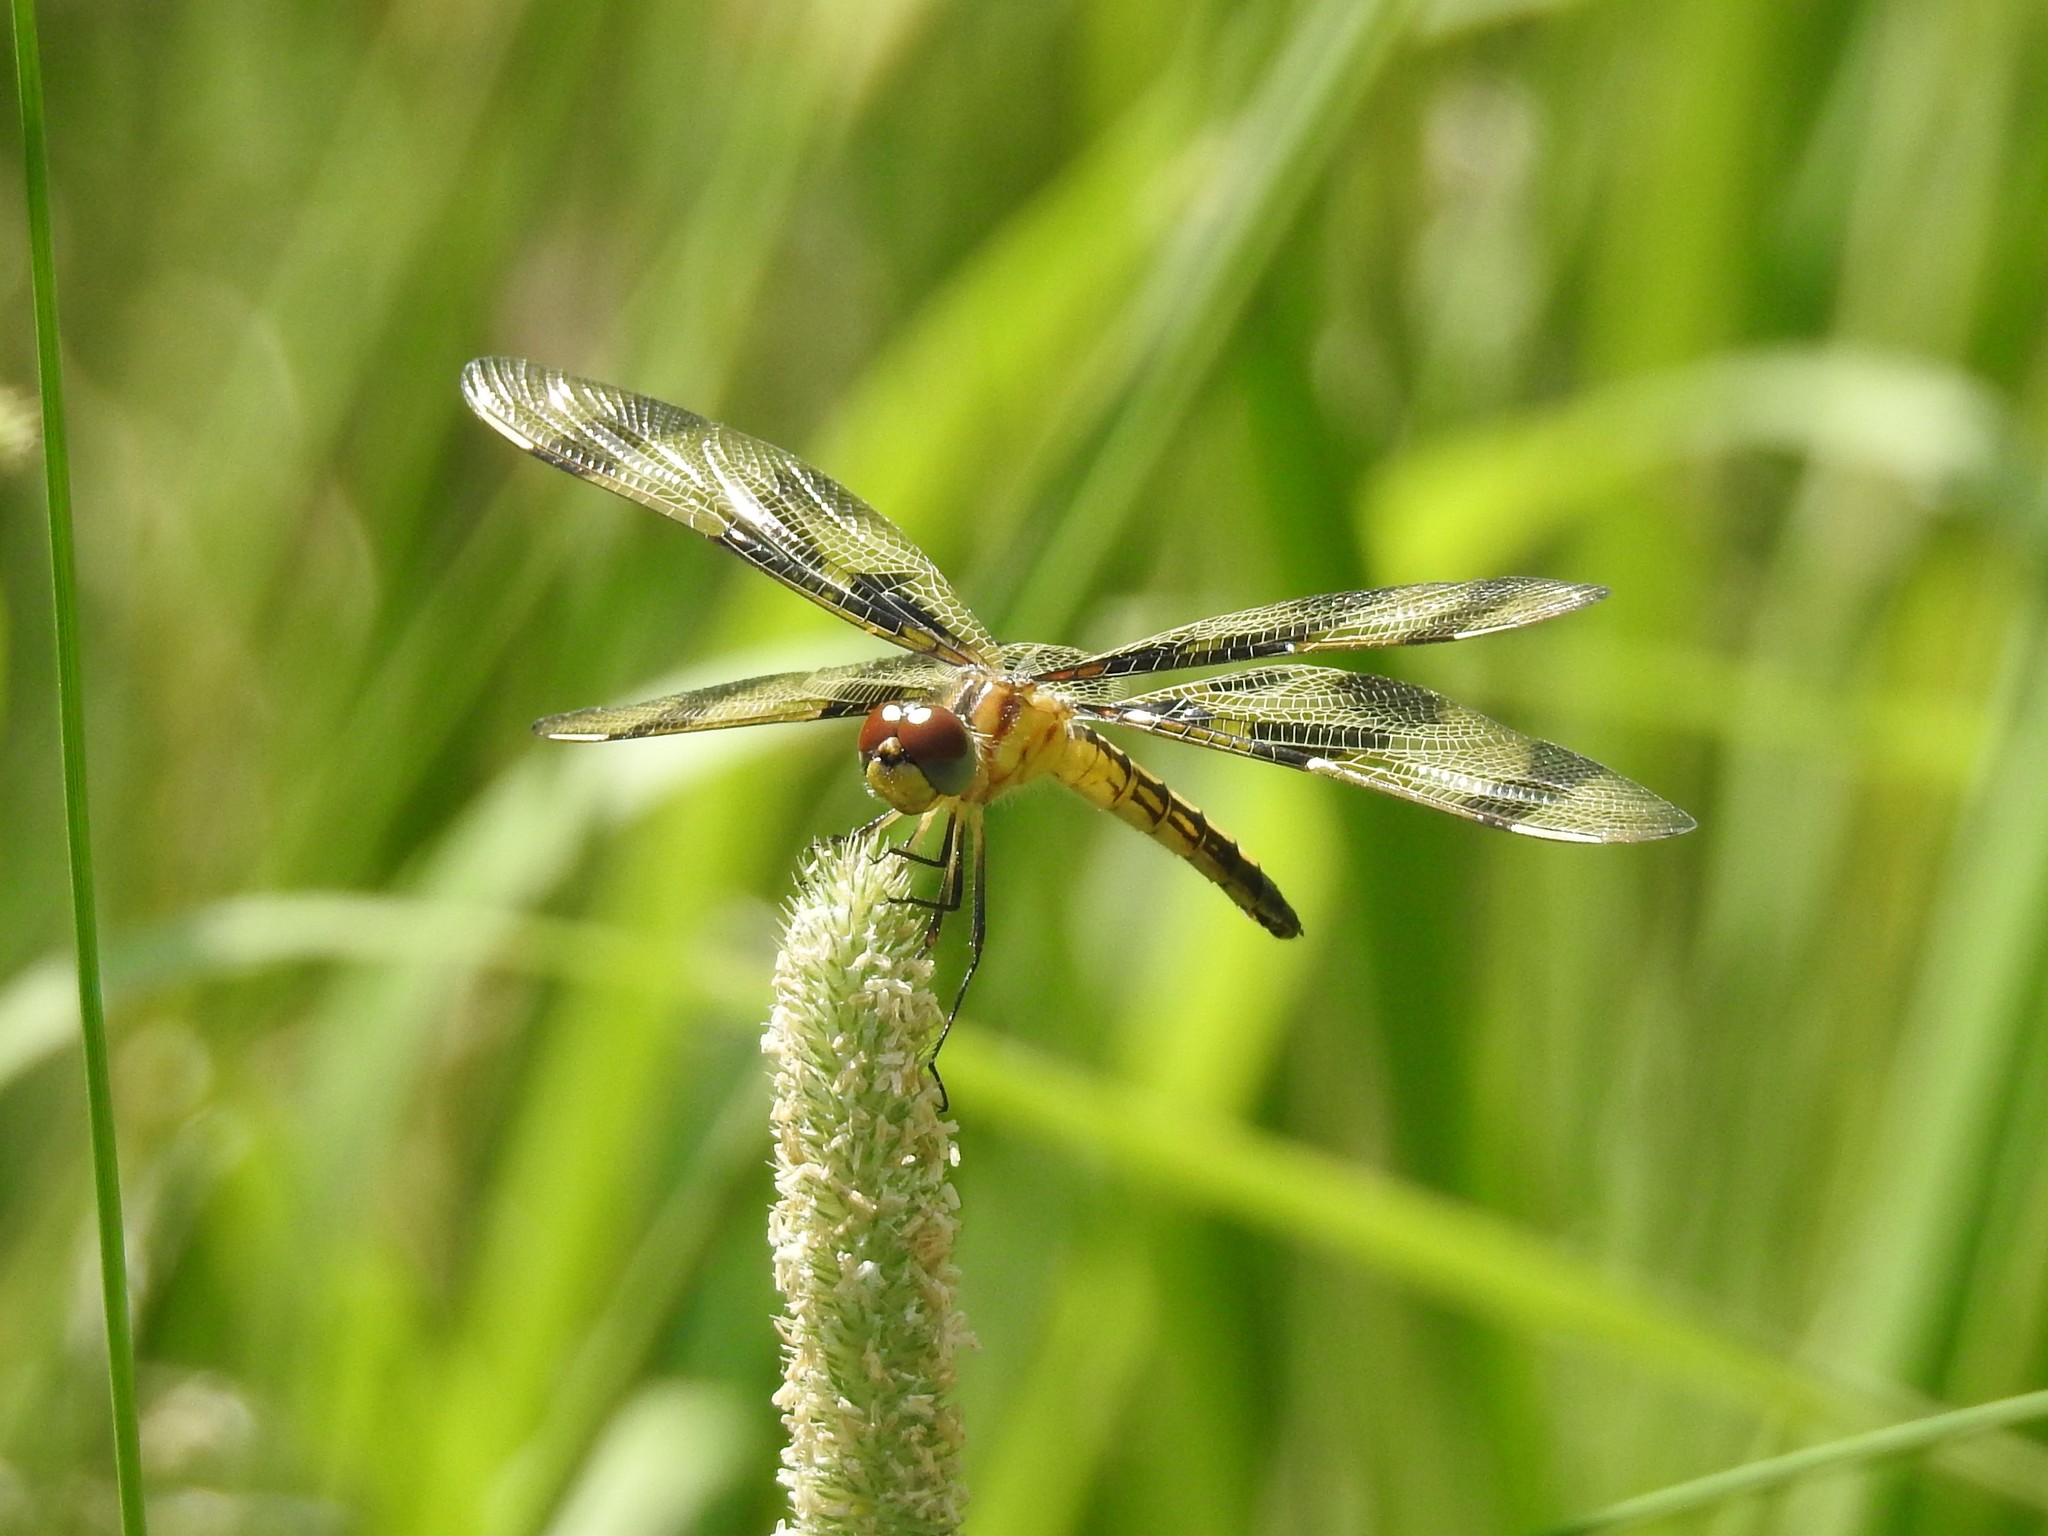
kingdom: Animalia
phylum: Arthropoda
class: Insecta
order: Odonata
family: Libellulidae
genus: Celithemis
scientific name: Celithemis eponina
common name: Halloween pennant
